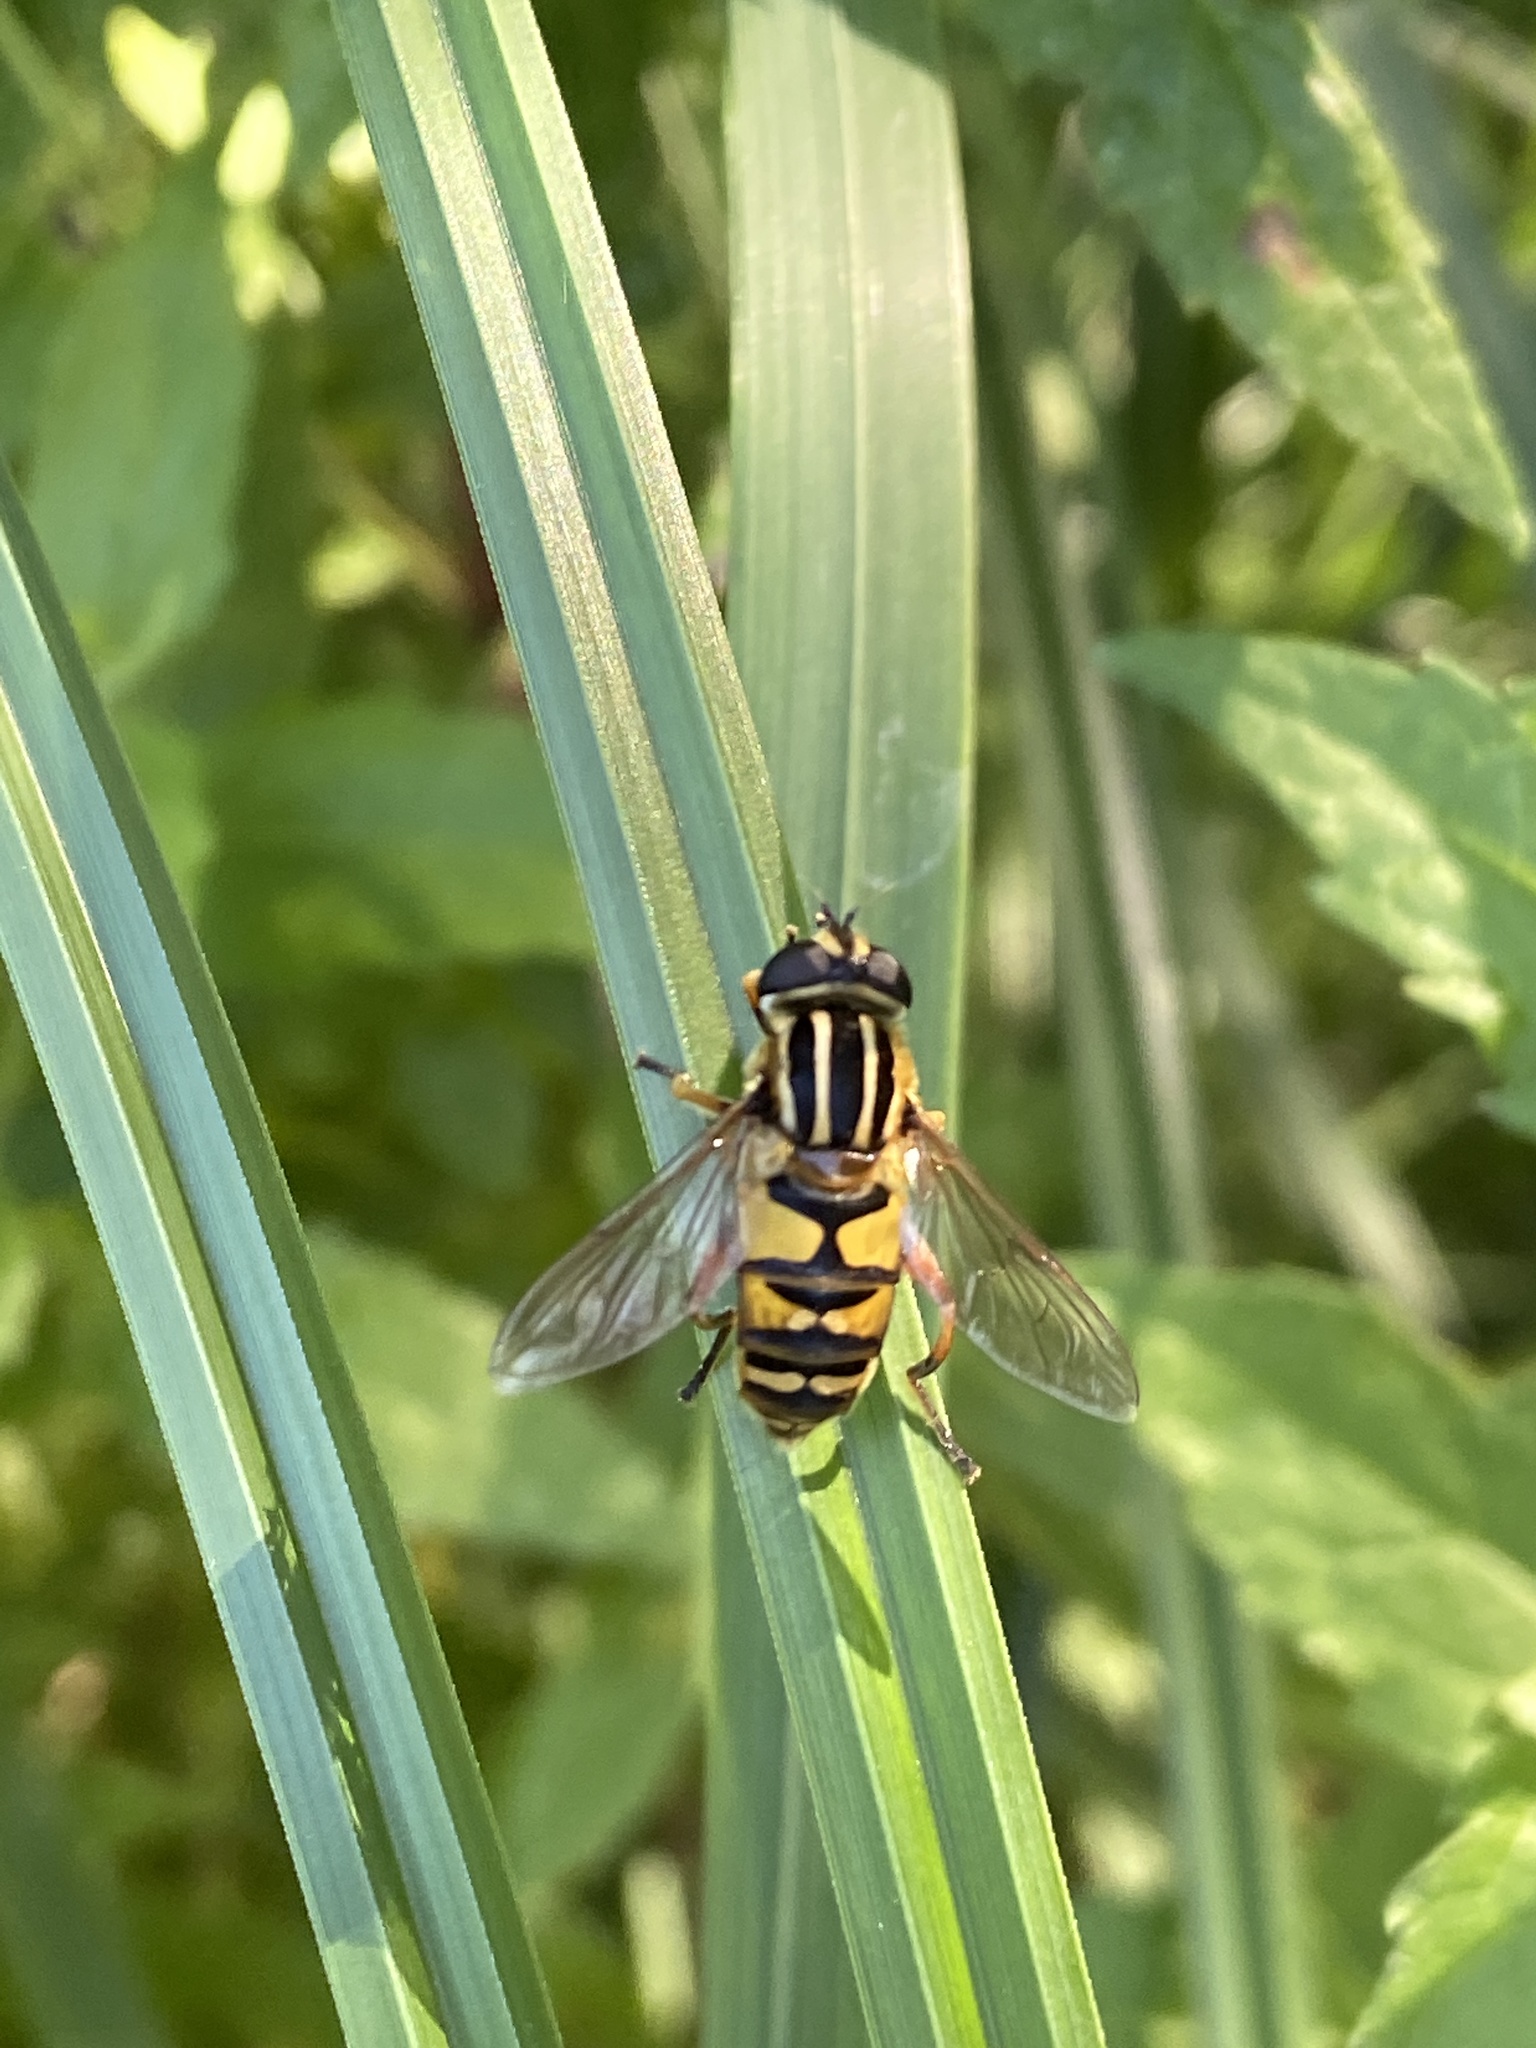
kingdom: Animalia
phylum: Arthropoda
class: Insecta
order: Diptera
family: Syrphidae
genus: Helophilus
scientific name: Helophilus pendulus
